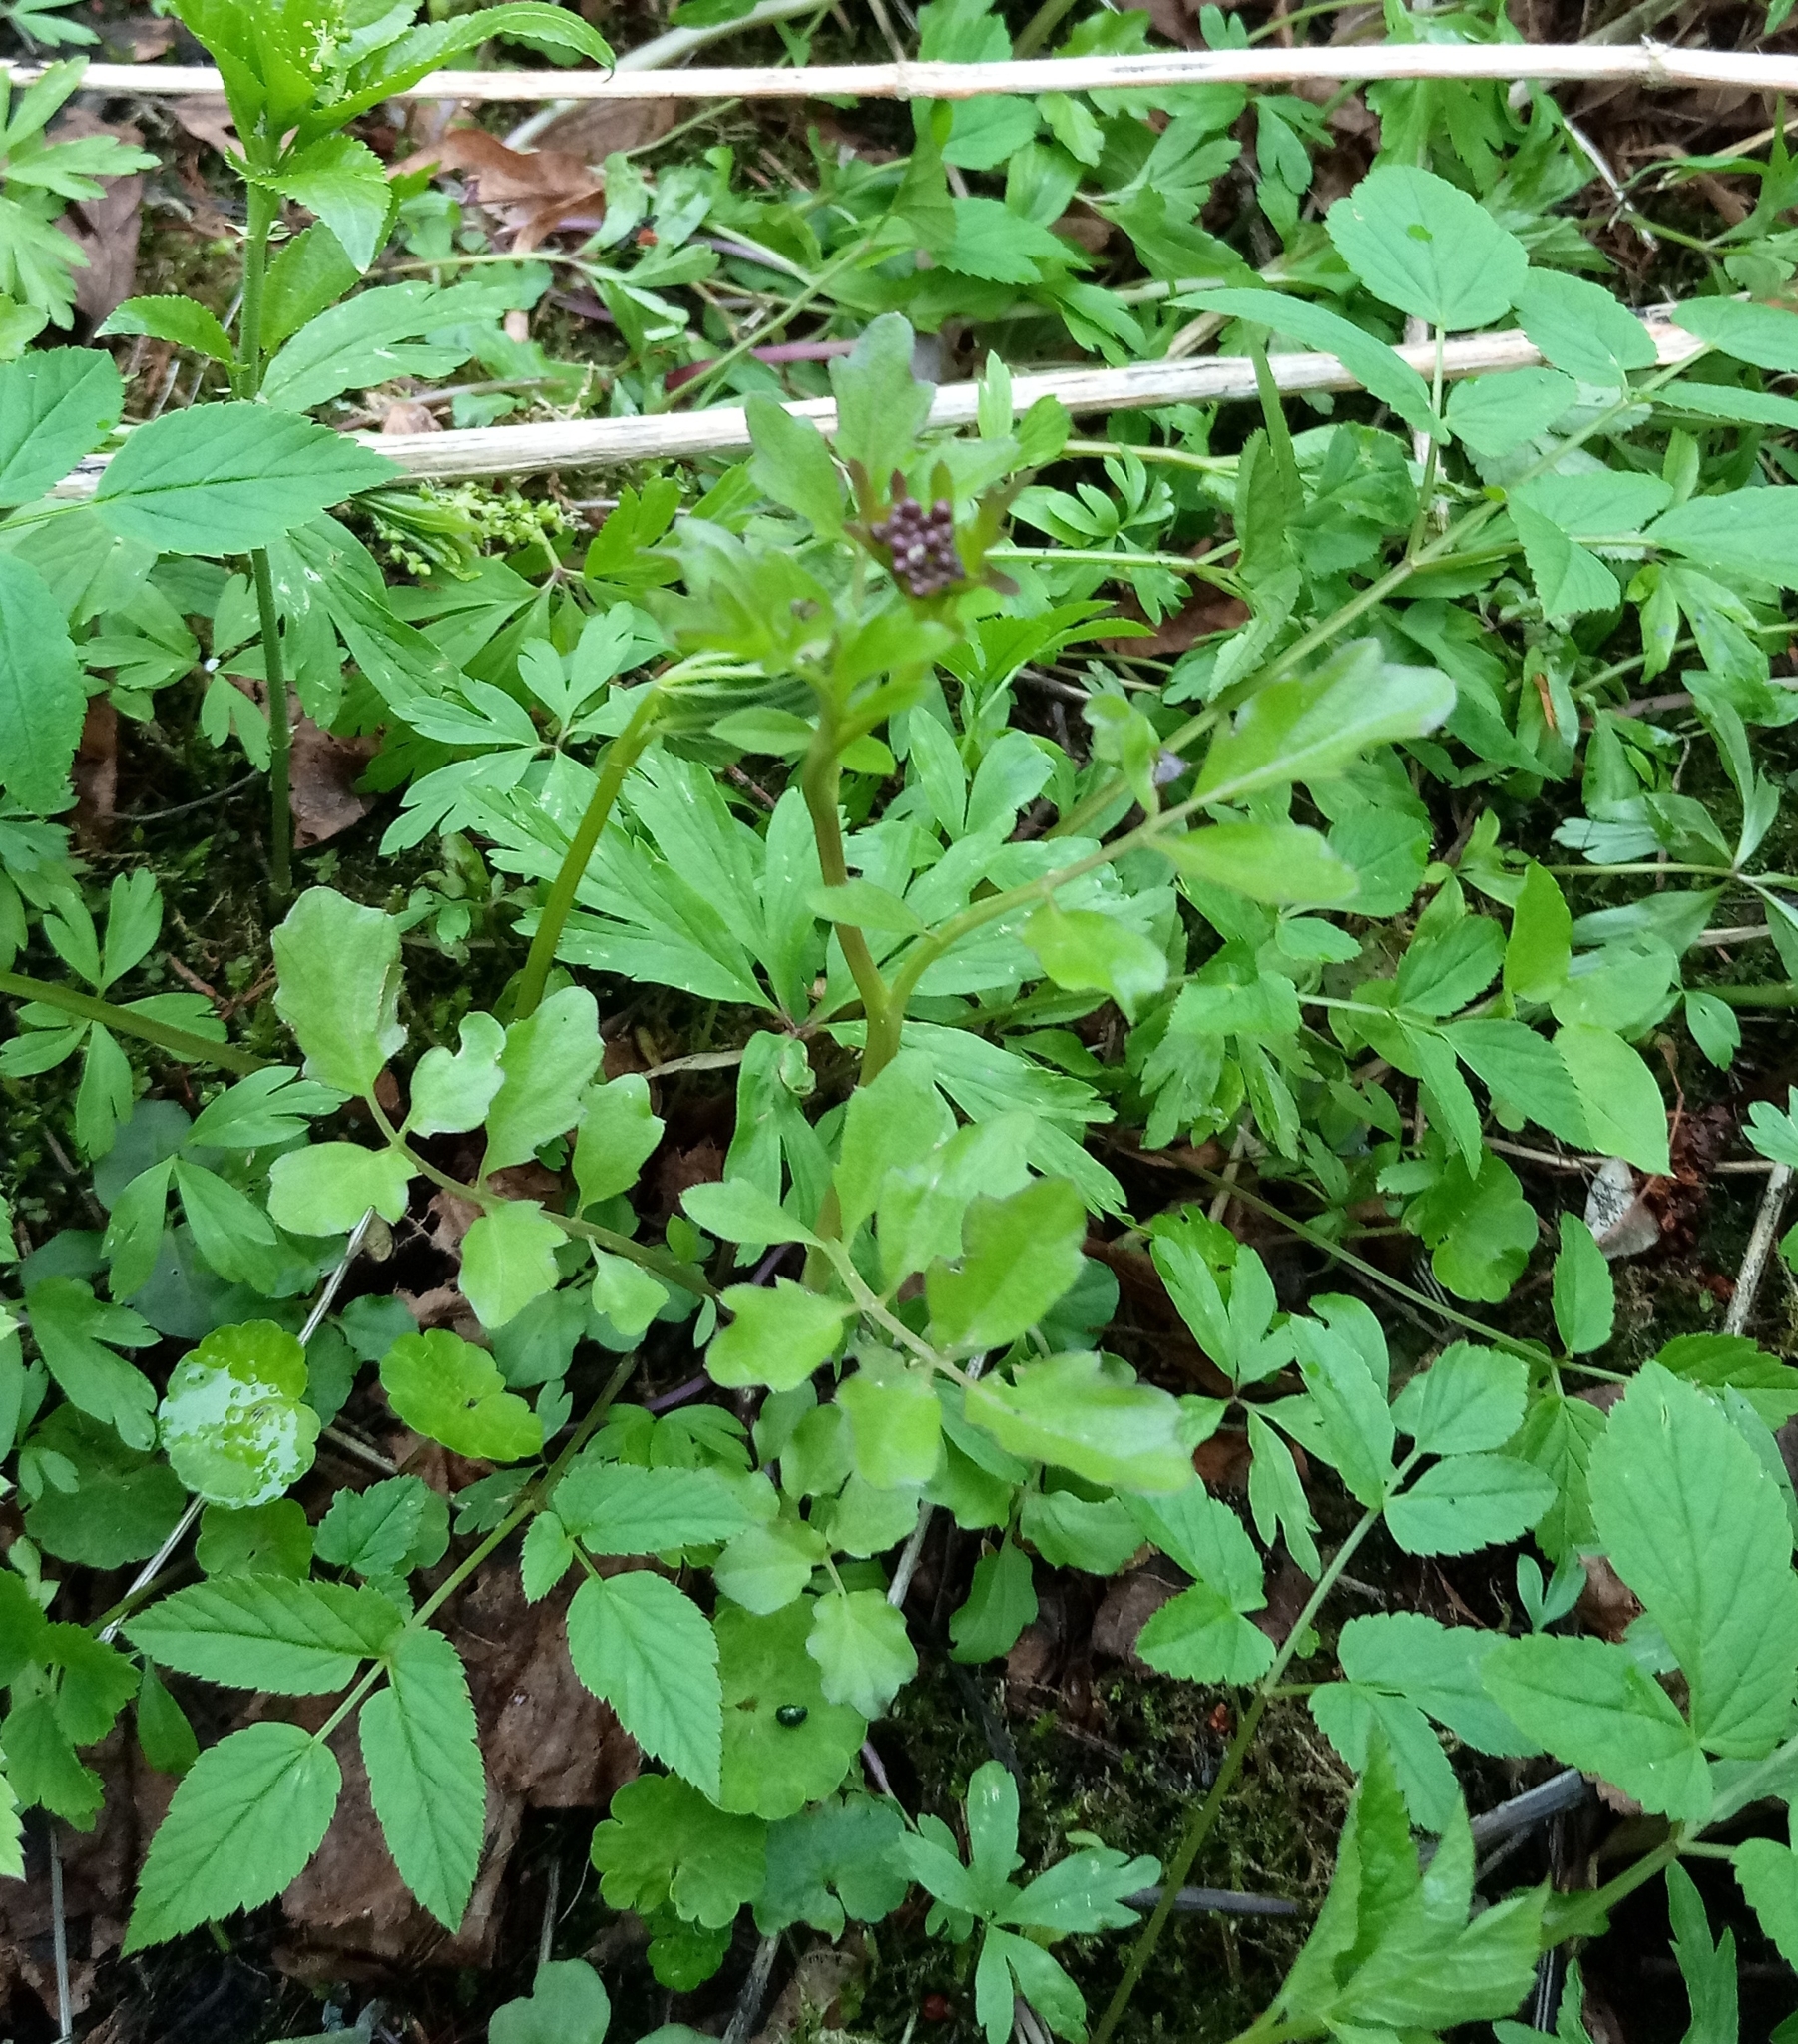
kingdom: Plantae
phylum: Tracheophyta
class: Magnoliopsida
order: Brassicales
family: Brassicaceae
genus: Cardamine
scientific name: Cardamine amara
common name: Large bitter-cress
